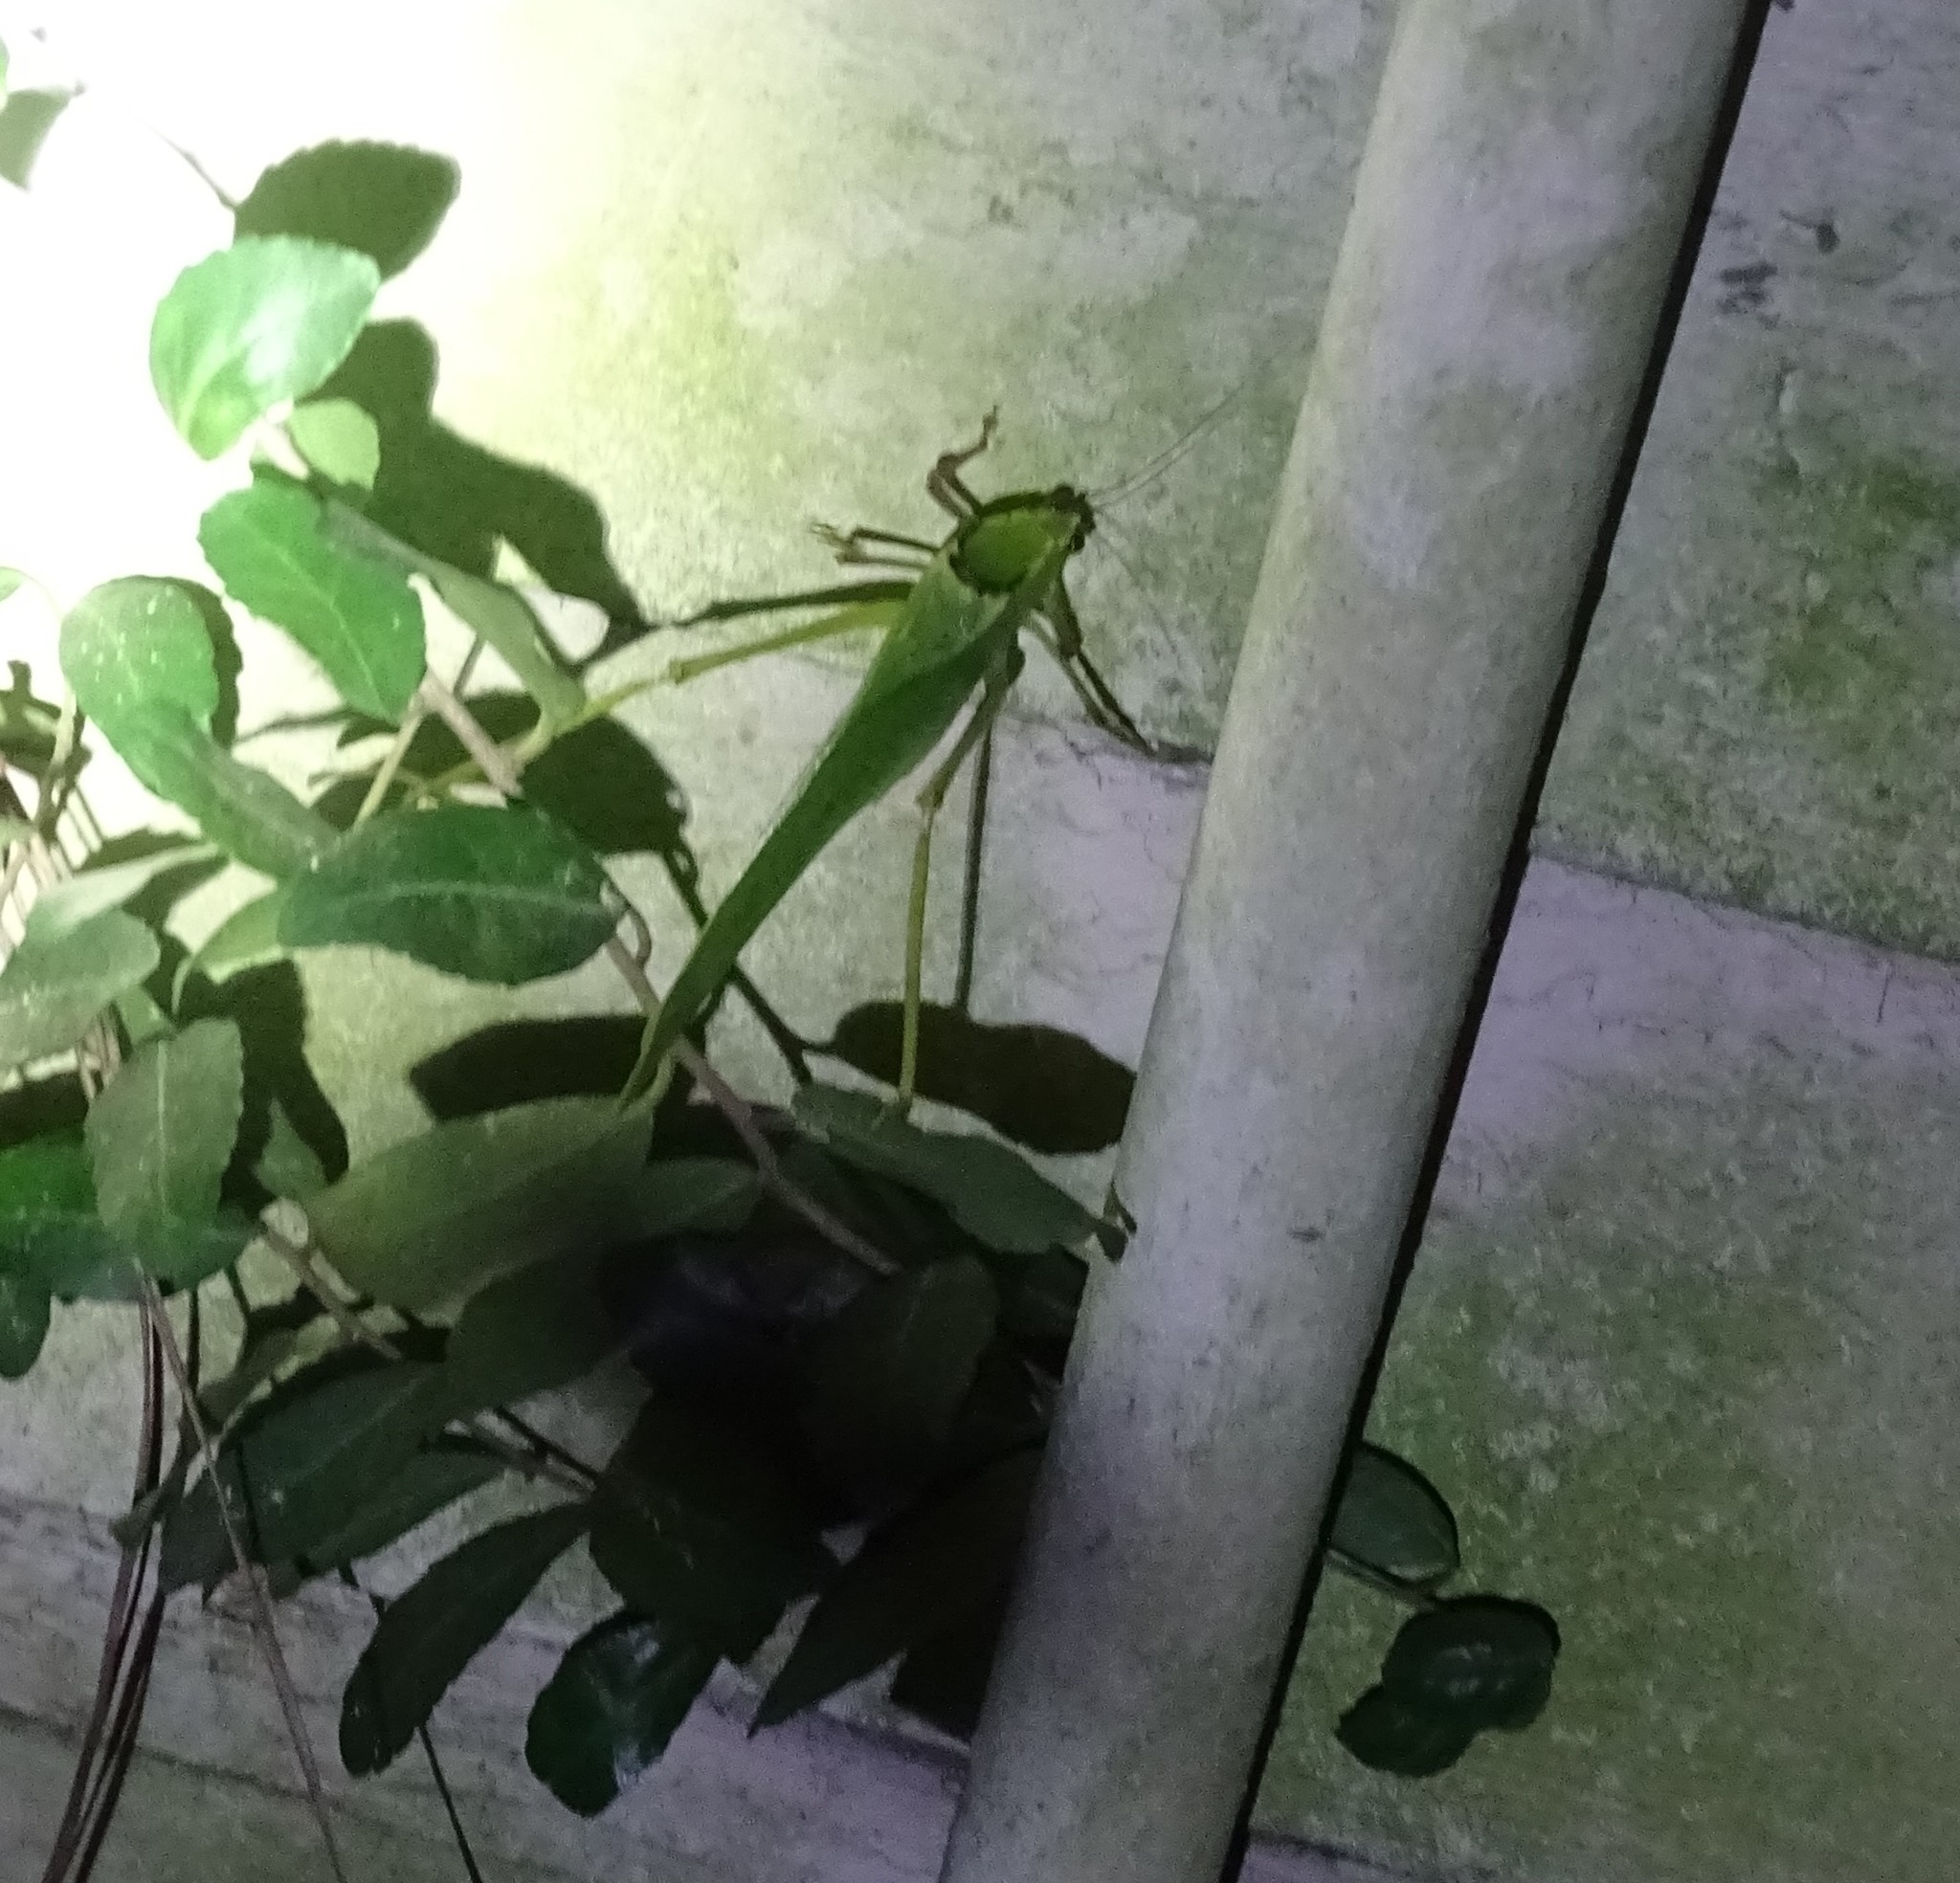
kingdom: Animalia
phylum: Arthropoda
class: Insecta
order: Orthoptera
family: Tettigoniidae
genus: Stilpnochlora
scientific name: Stilpnochlora couloniana
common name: Giant katydid
